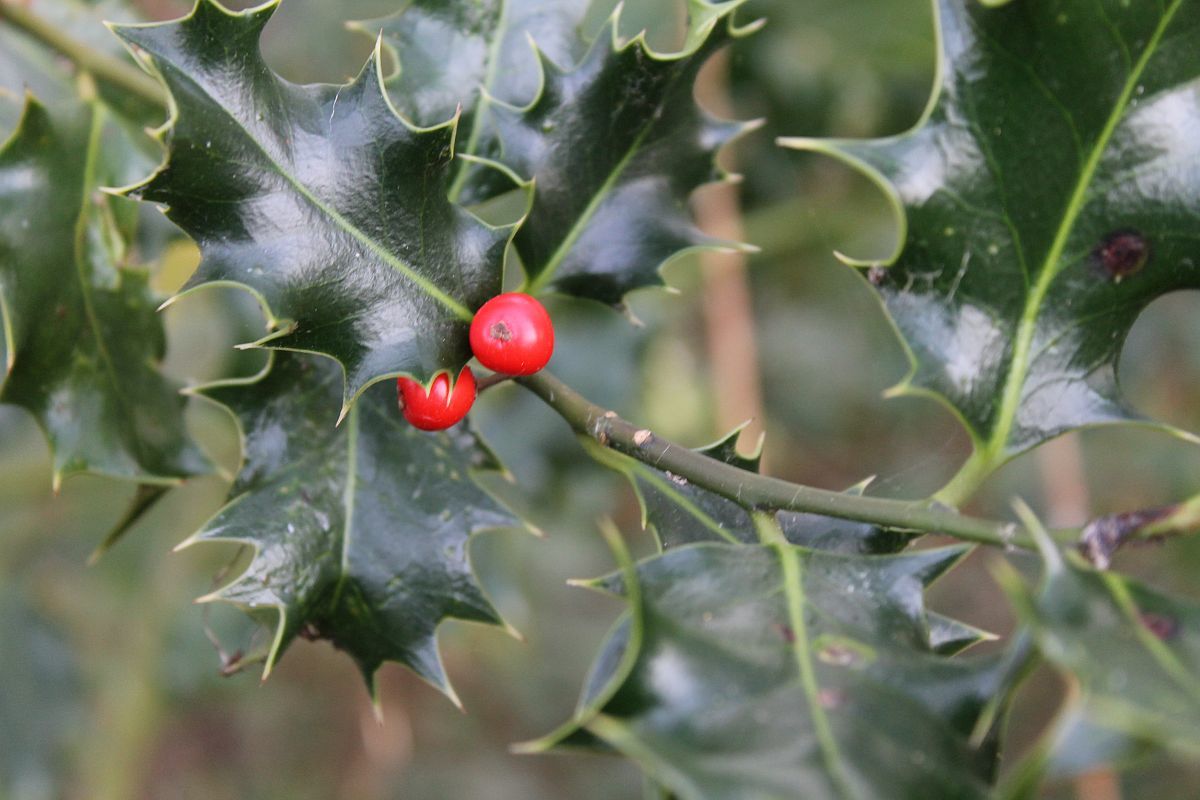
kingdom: Plantae
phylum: Tracheophyta
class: Magnoliopsida
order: Aquifoliales
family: Aquifoliaceae
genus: Ilex
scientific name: Ilex aquifolium
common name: English holly
